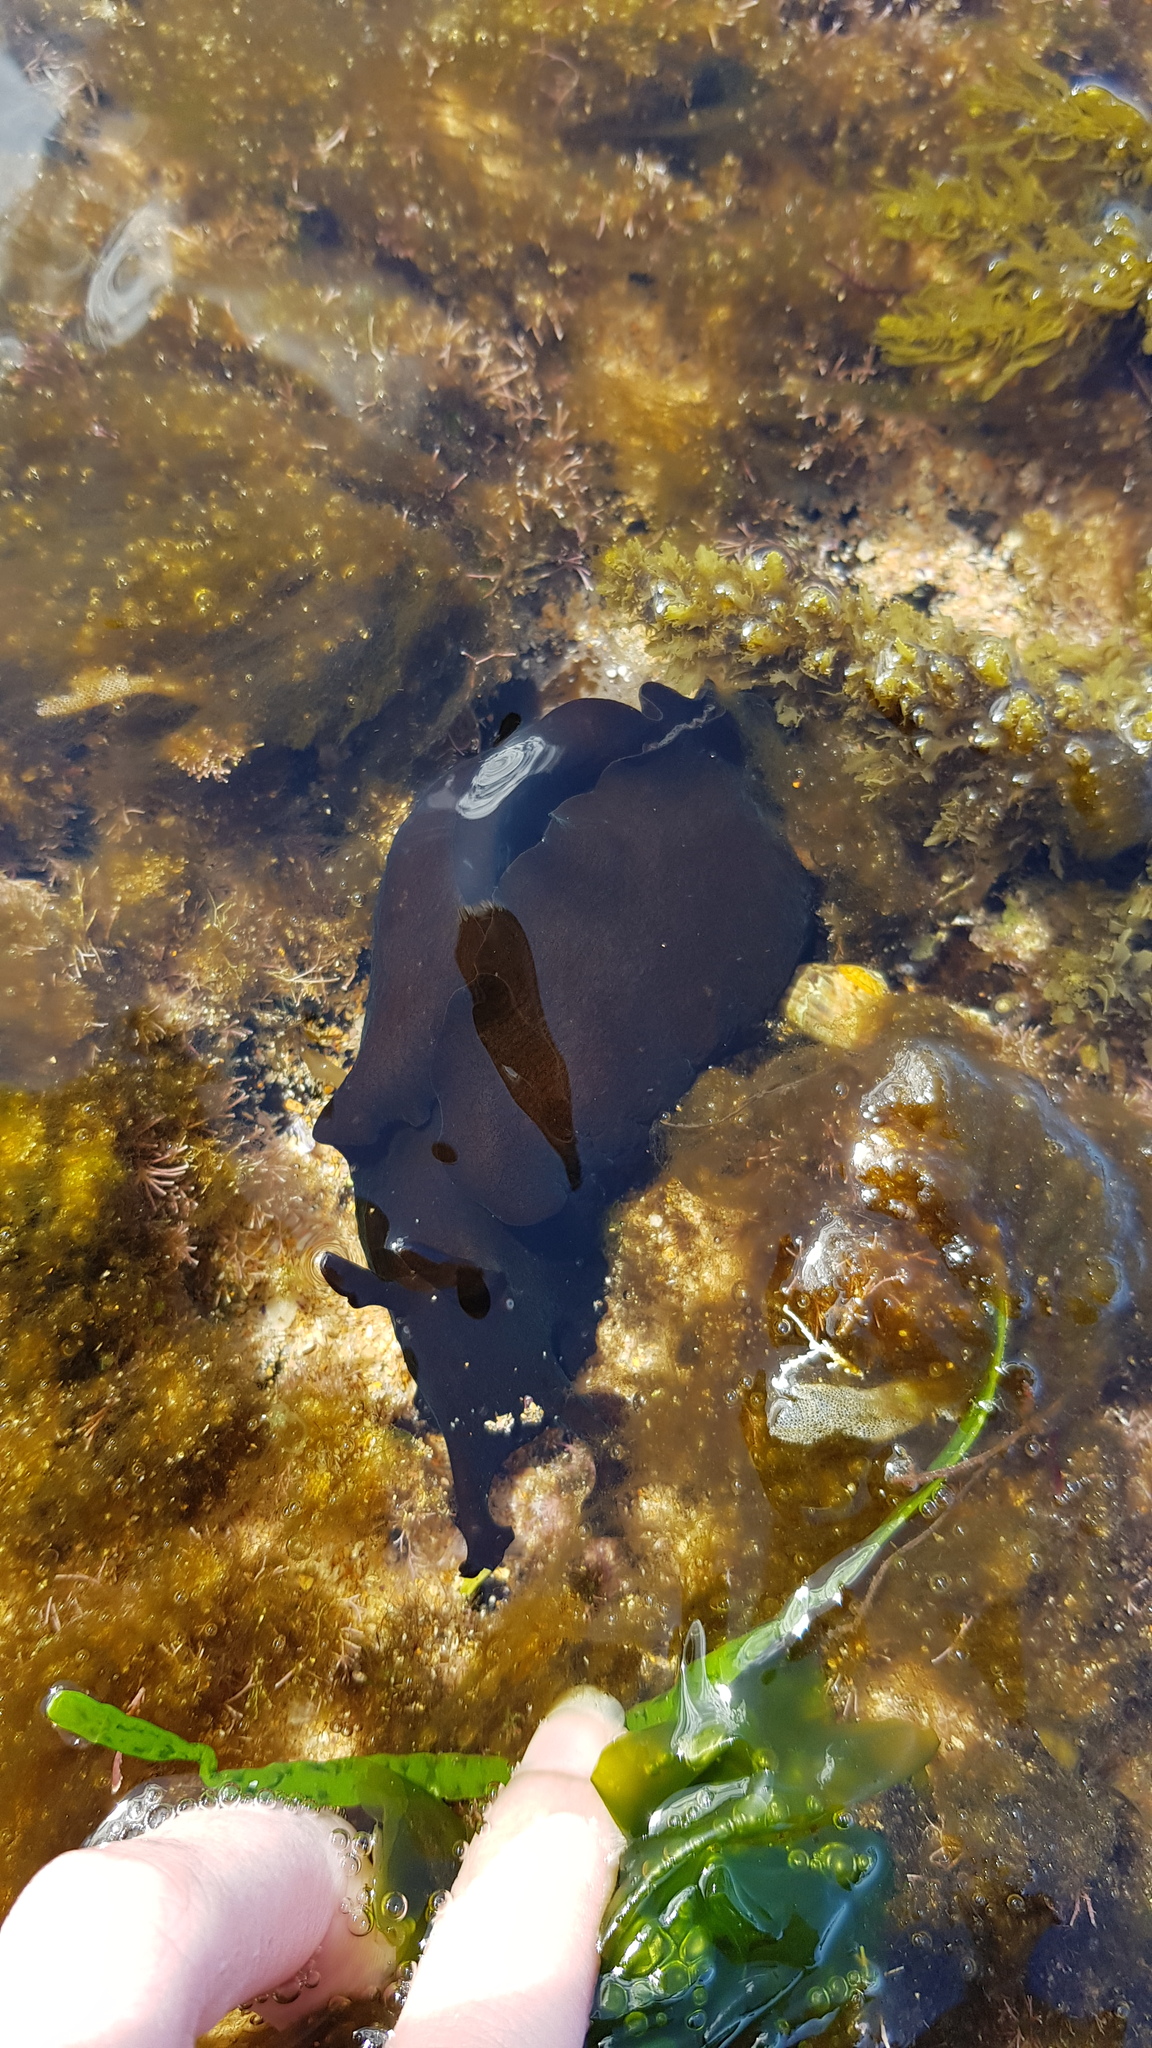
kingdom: Animalia
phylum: Mollusca
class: Gastropoda
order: Aplysiida
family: Aplysiidae
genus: Aplysia
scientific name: Aplysia juliana
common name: Walking sea hare
